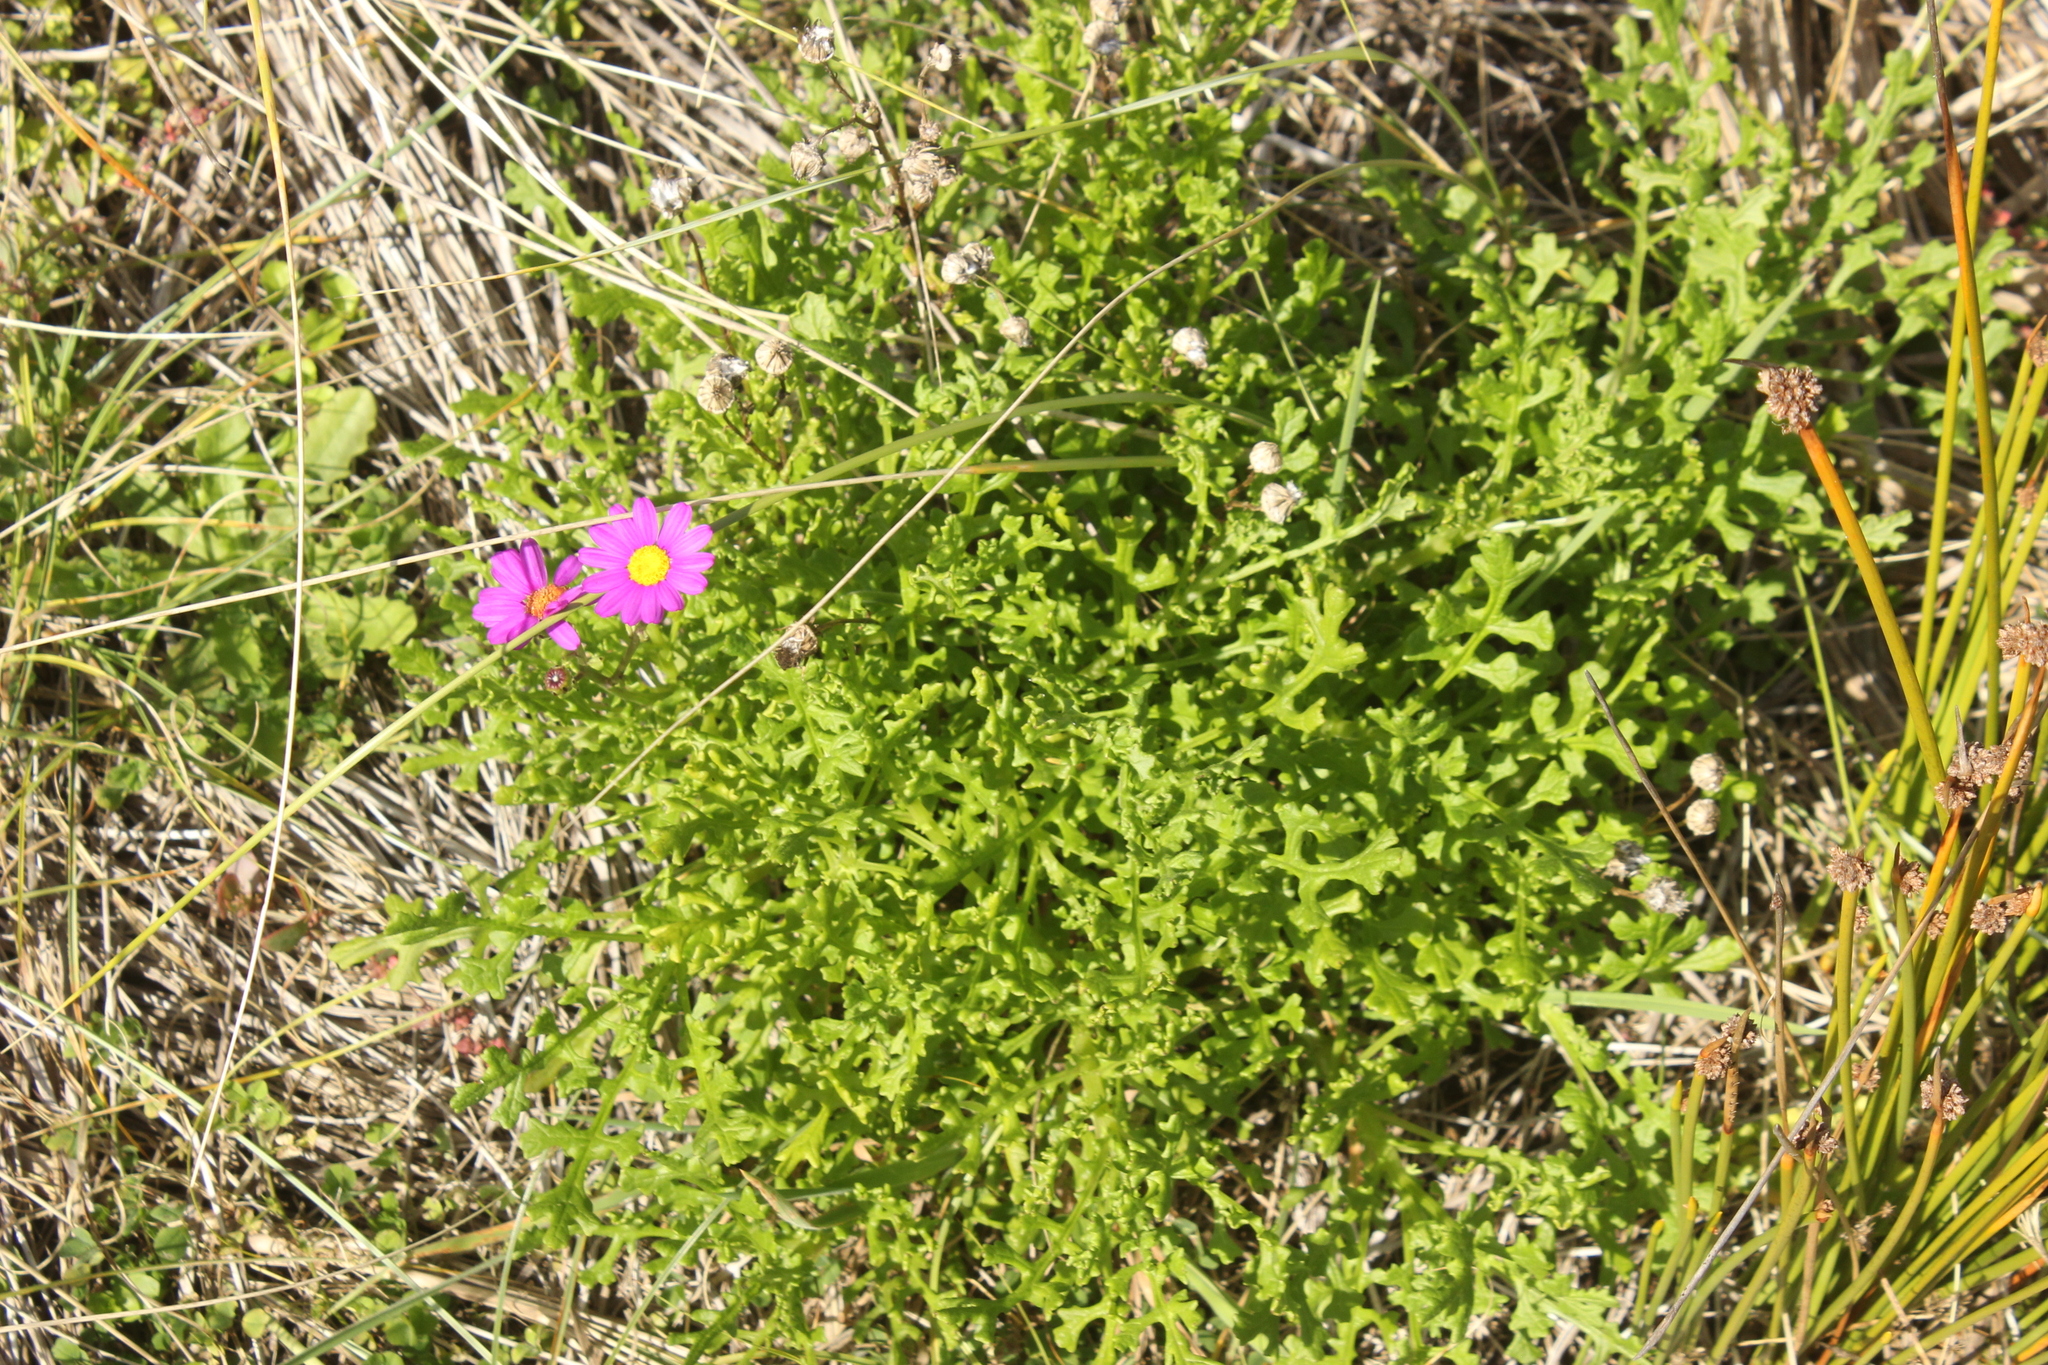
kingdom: Plantae
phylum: Tracheophyta
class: Magnoliopsida
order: Asterales
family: Asteraceae
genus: Senecio
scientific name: Senecio elegans
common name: Purple groundsel
